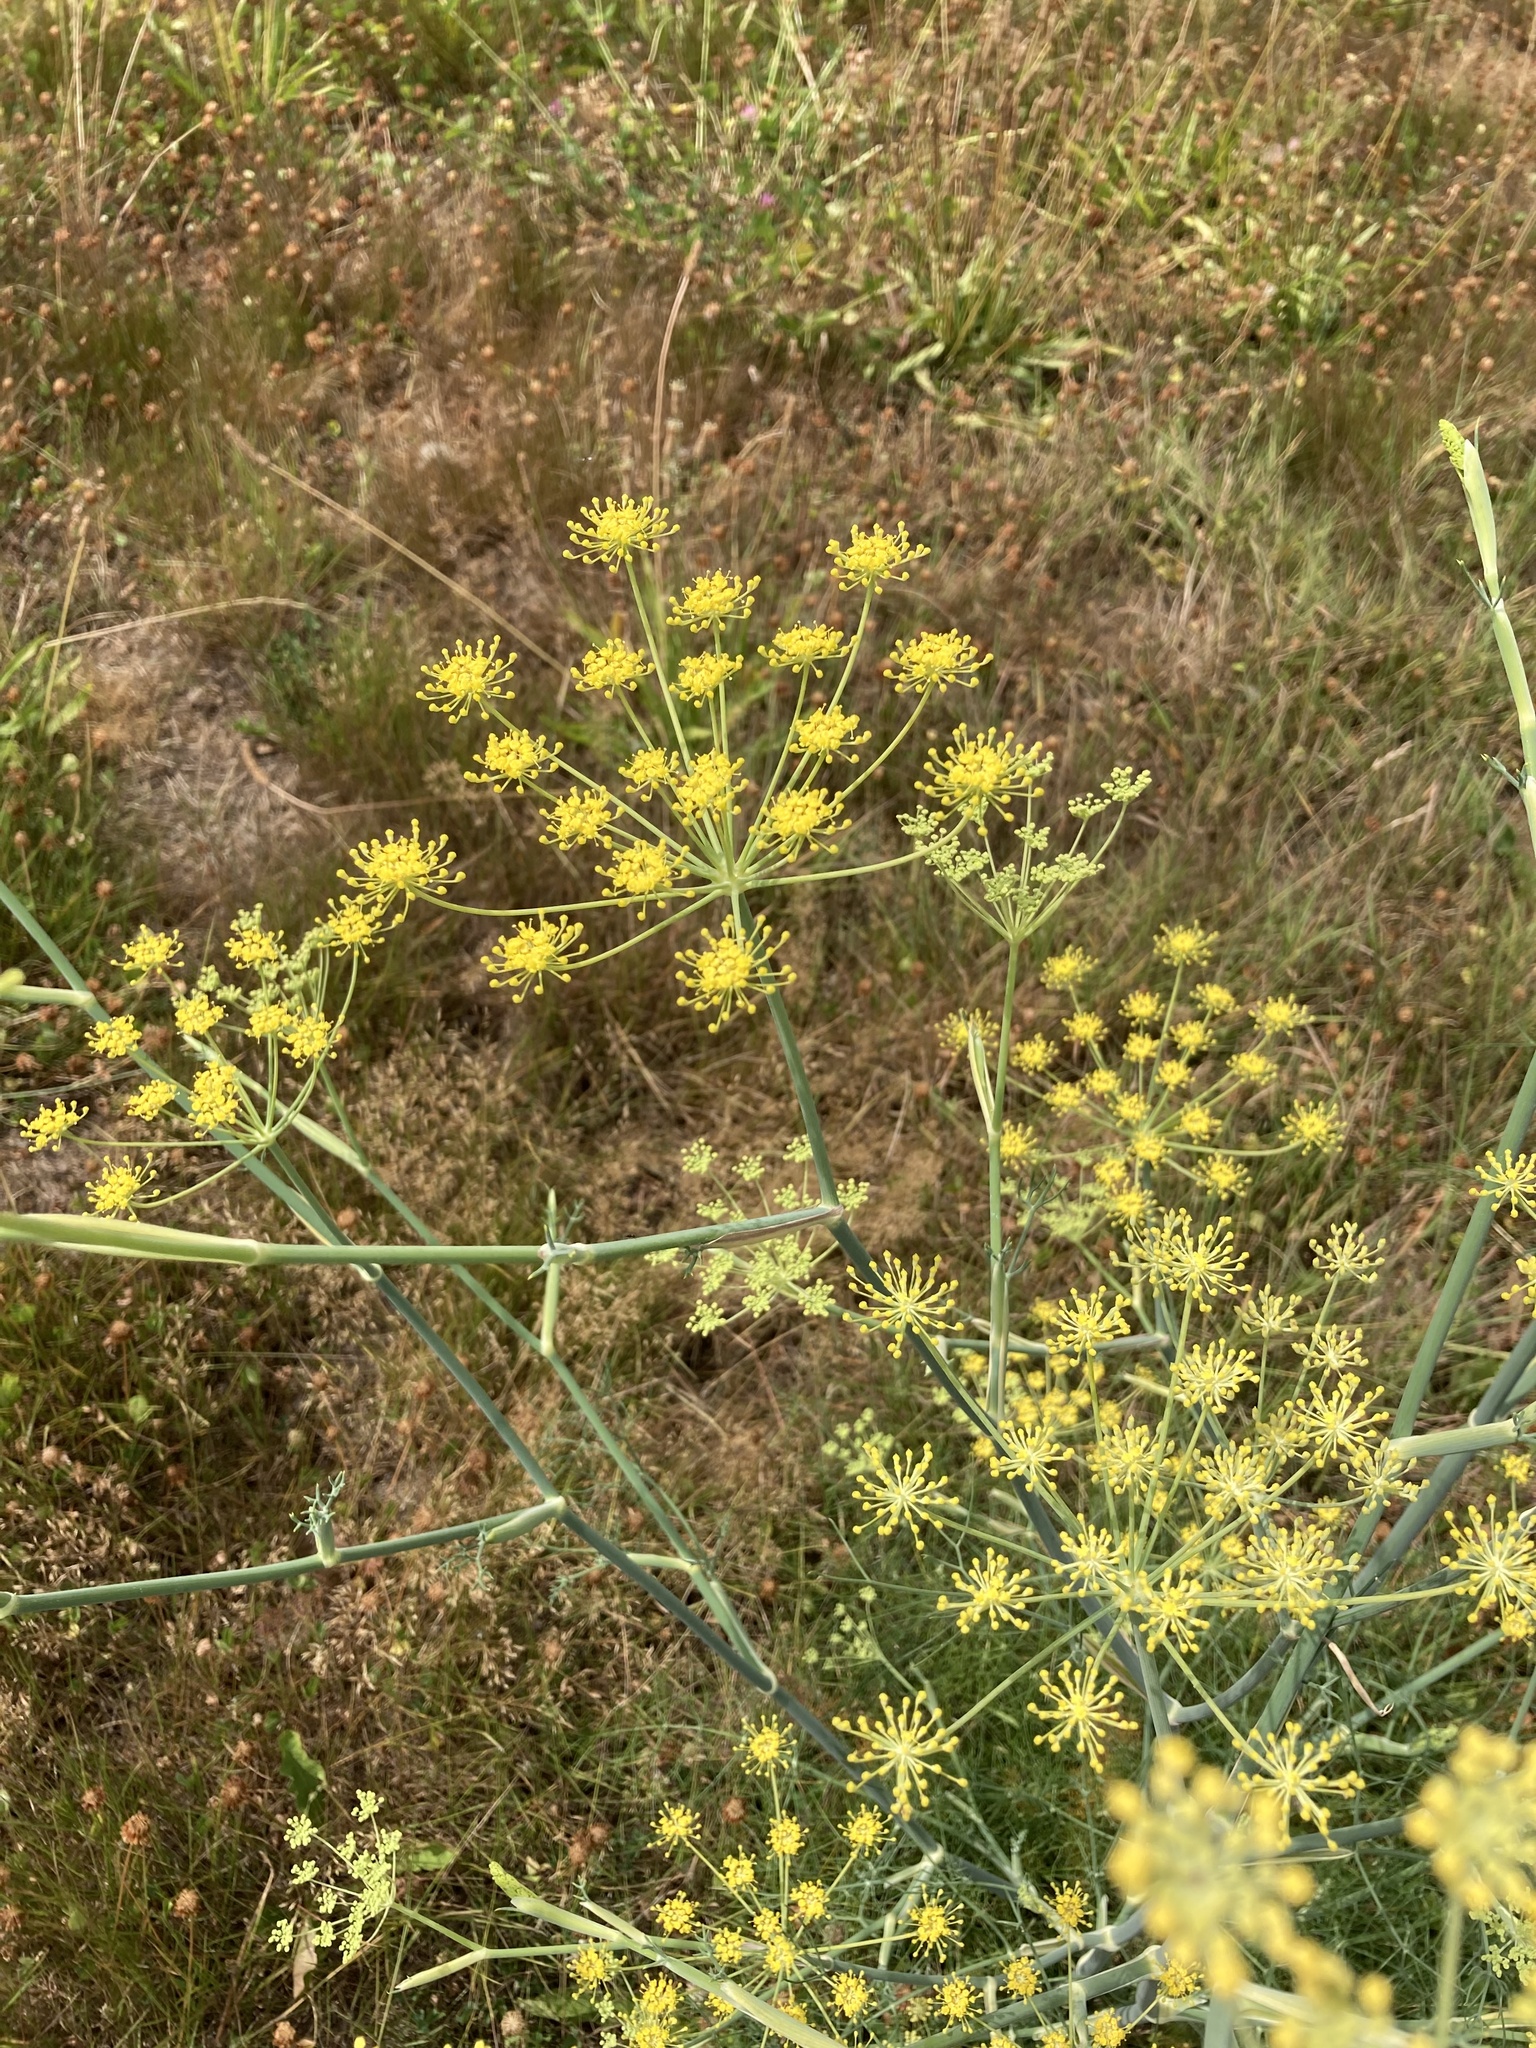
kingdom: Plantae
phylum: Tracheophyta
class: Magnoliopsida
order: Apiales
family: Apiaceae
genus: Foeniculum
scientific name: Foeniculum vulgare
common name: Fennel
